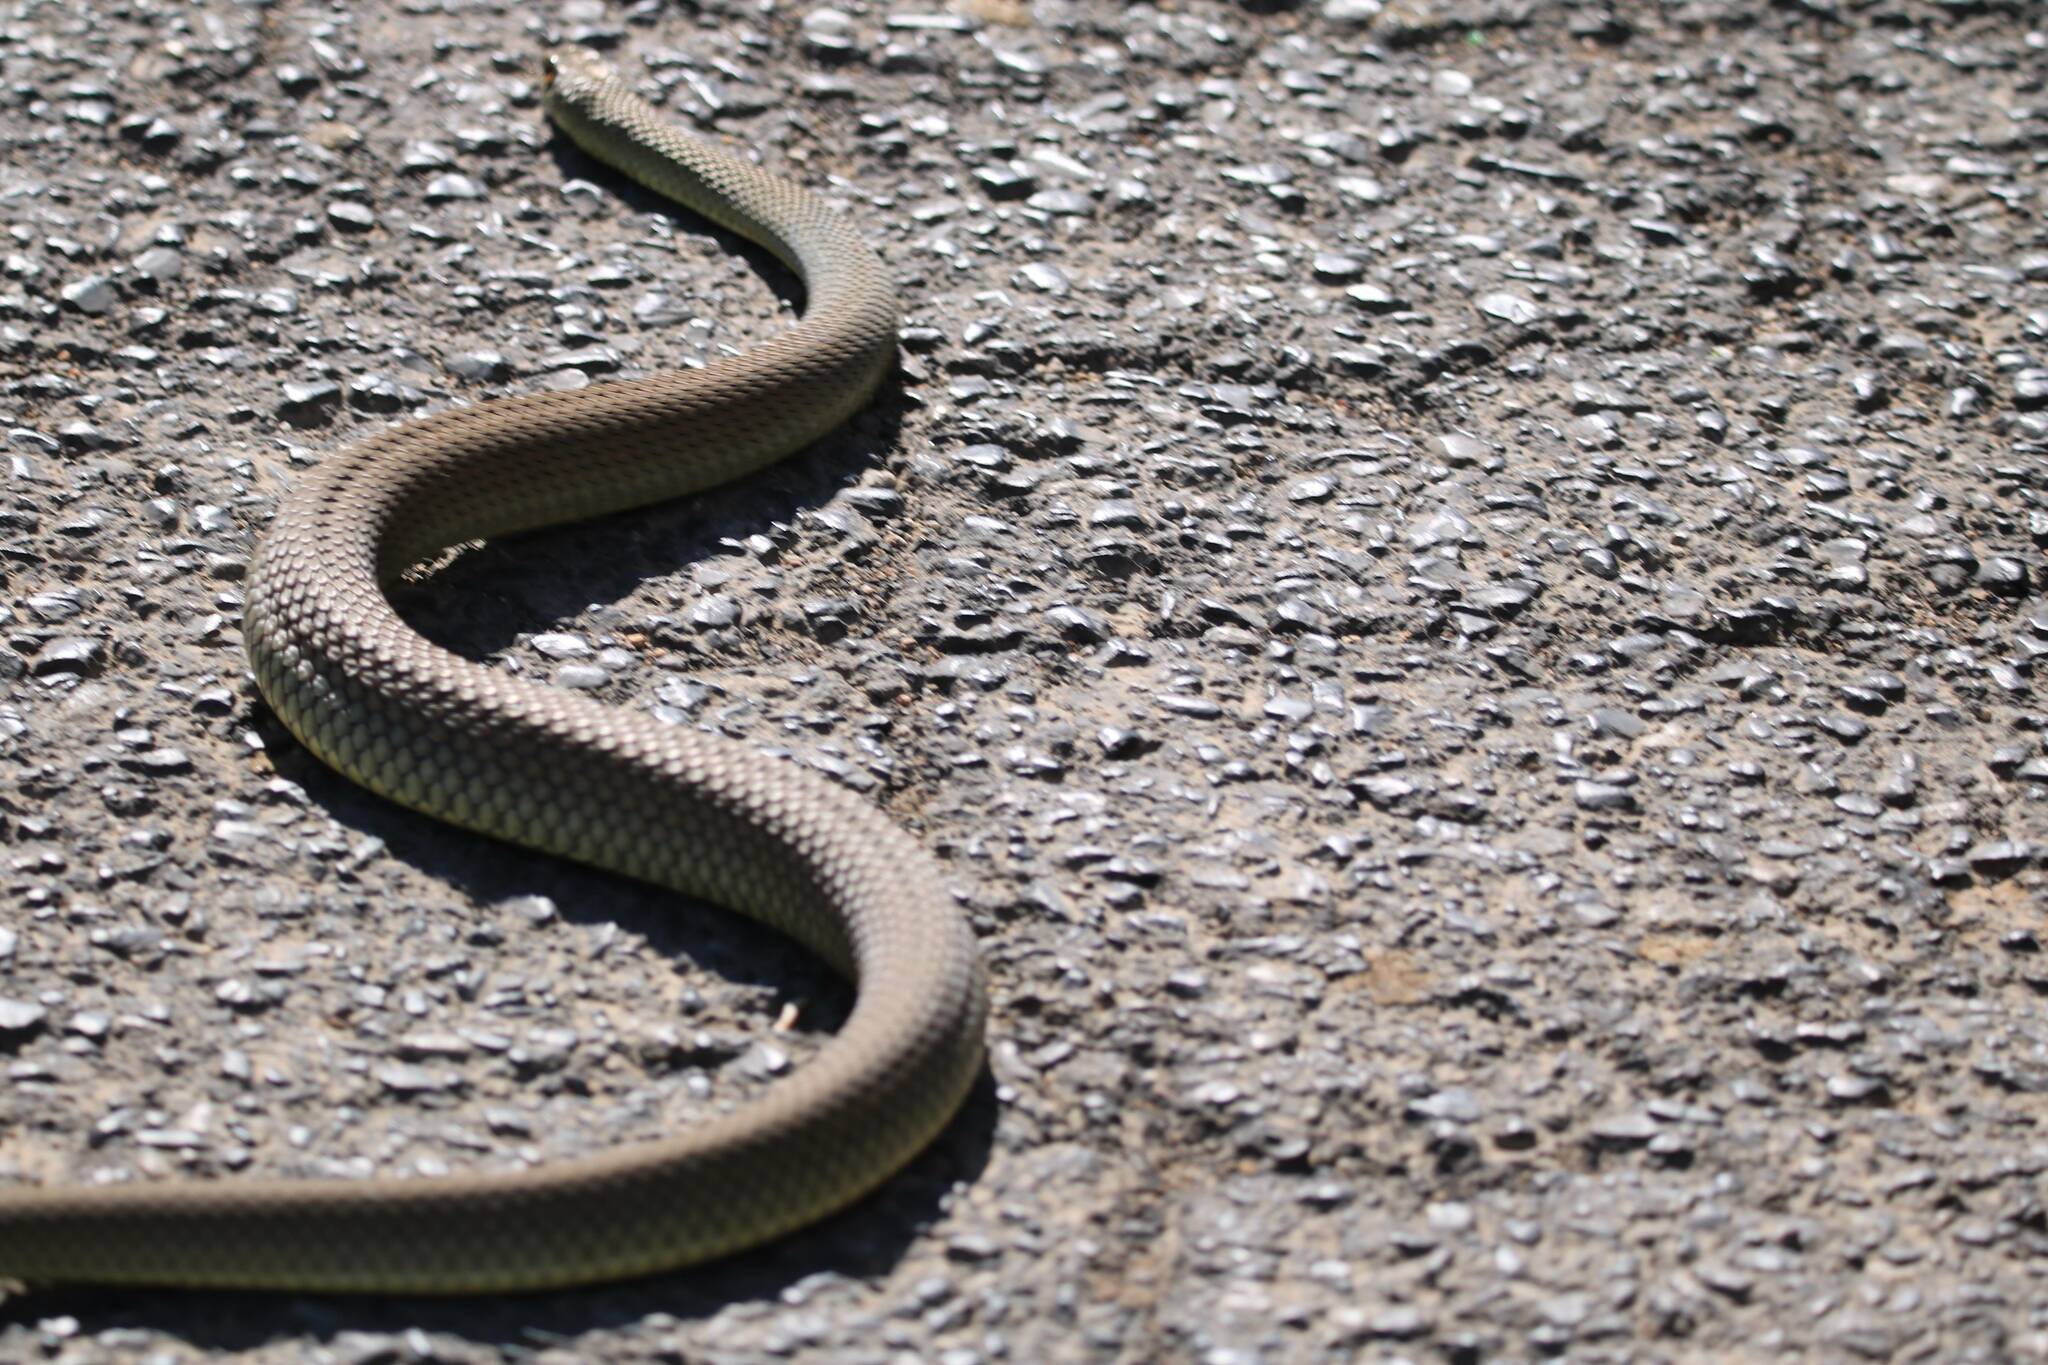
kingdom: Animalia
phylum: Chordata
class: Squamata
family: Psammophiidae
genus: Malpolon
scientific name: Malpolon insignitus
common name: Eastern montpellier snake
